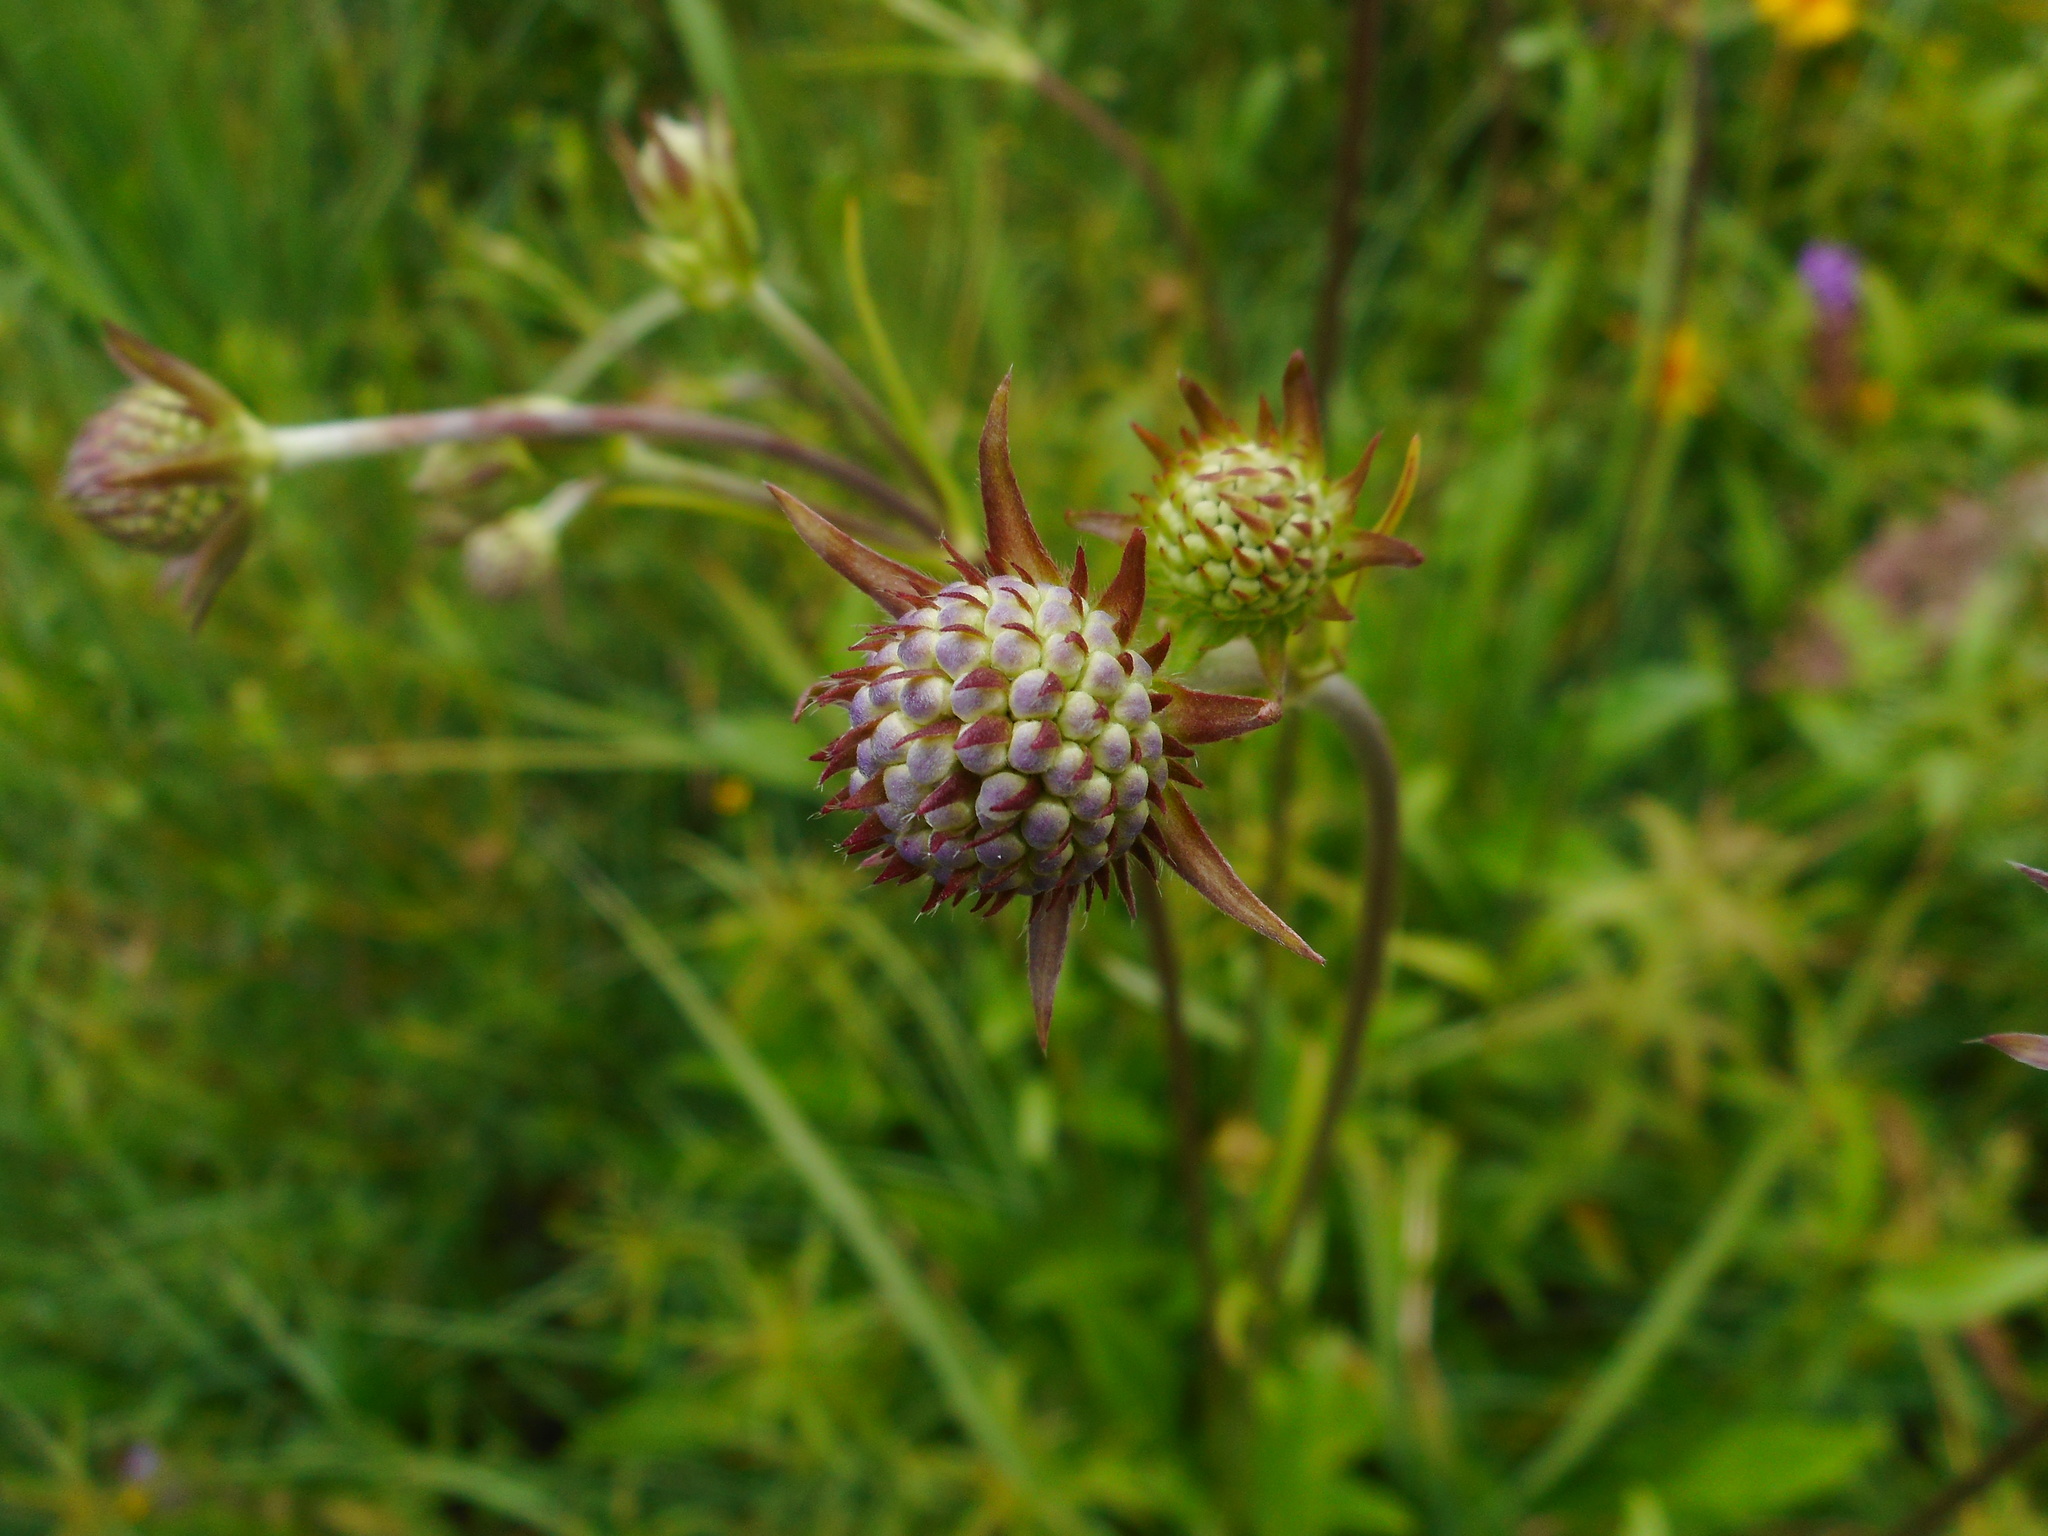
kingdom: Plantae
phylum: Tracheophyta
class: Magnoliopsida
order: Dipsacales
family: Caprifoliaceae
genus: Succisa
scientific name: Succisa pratensis
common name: Devil's-bit
